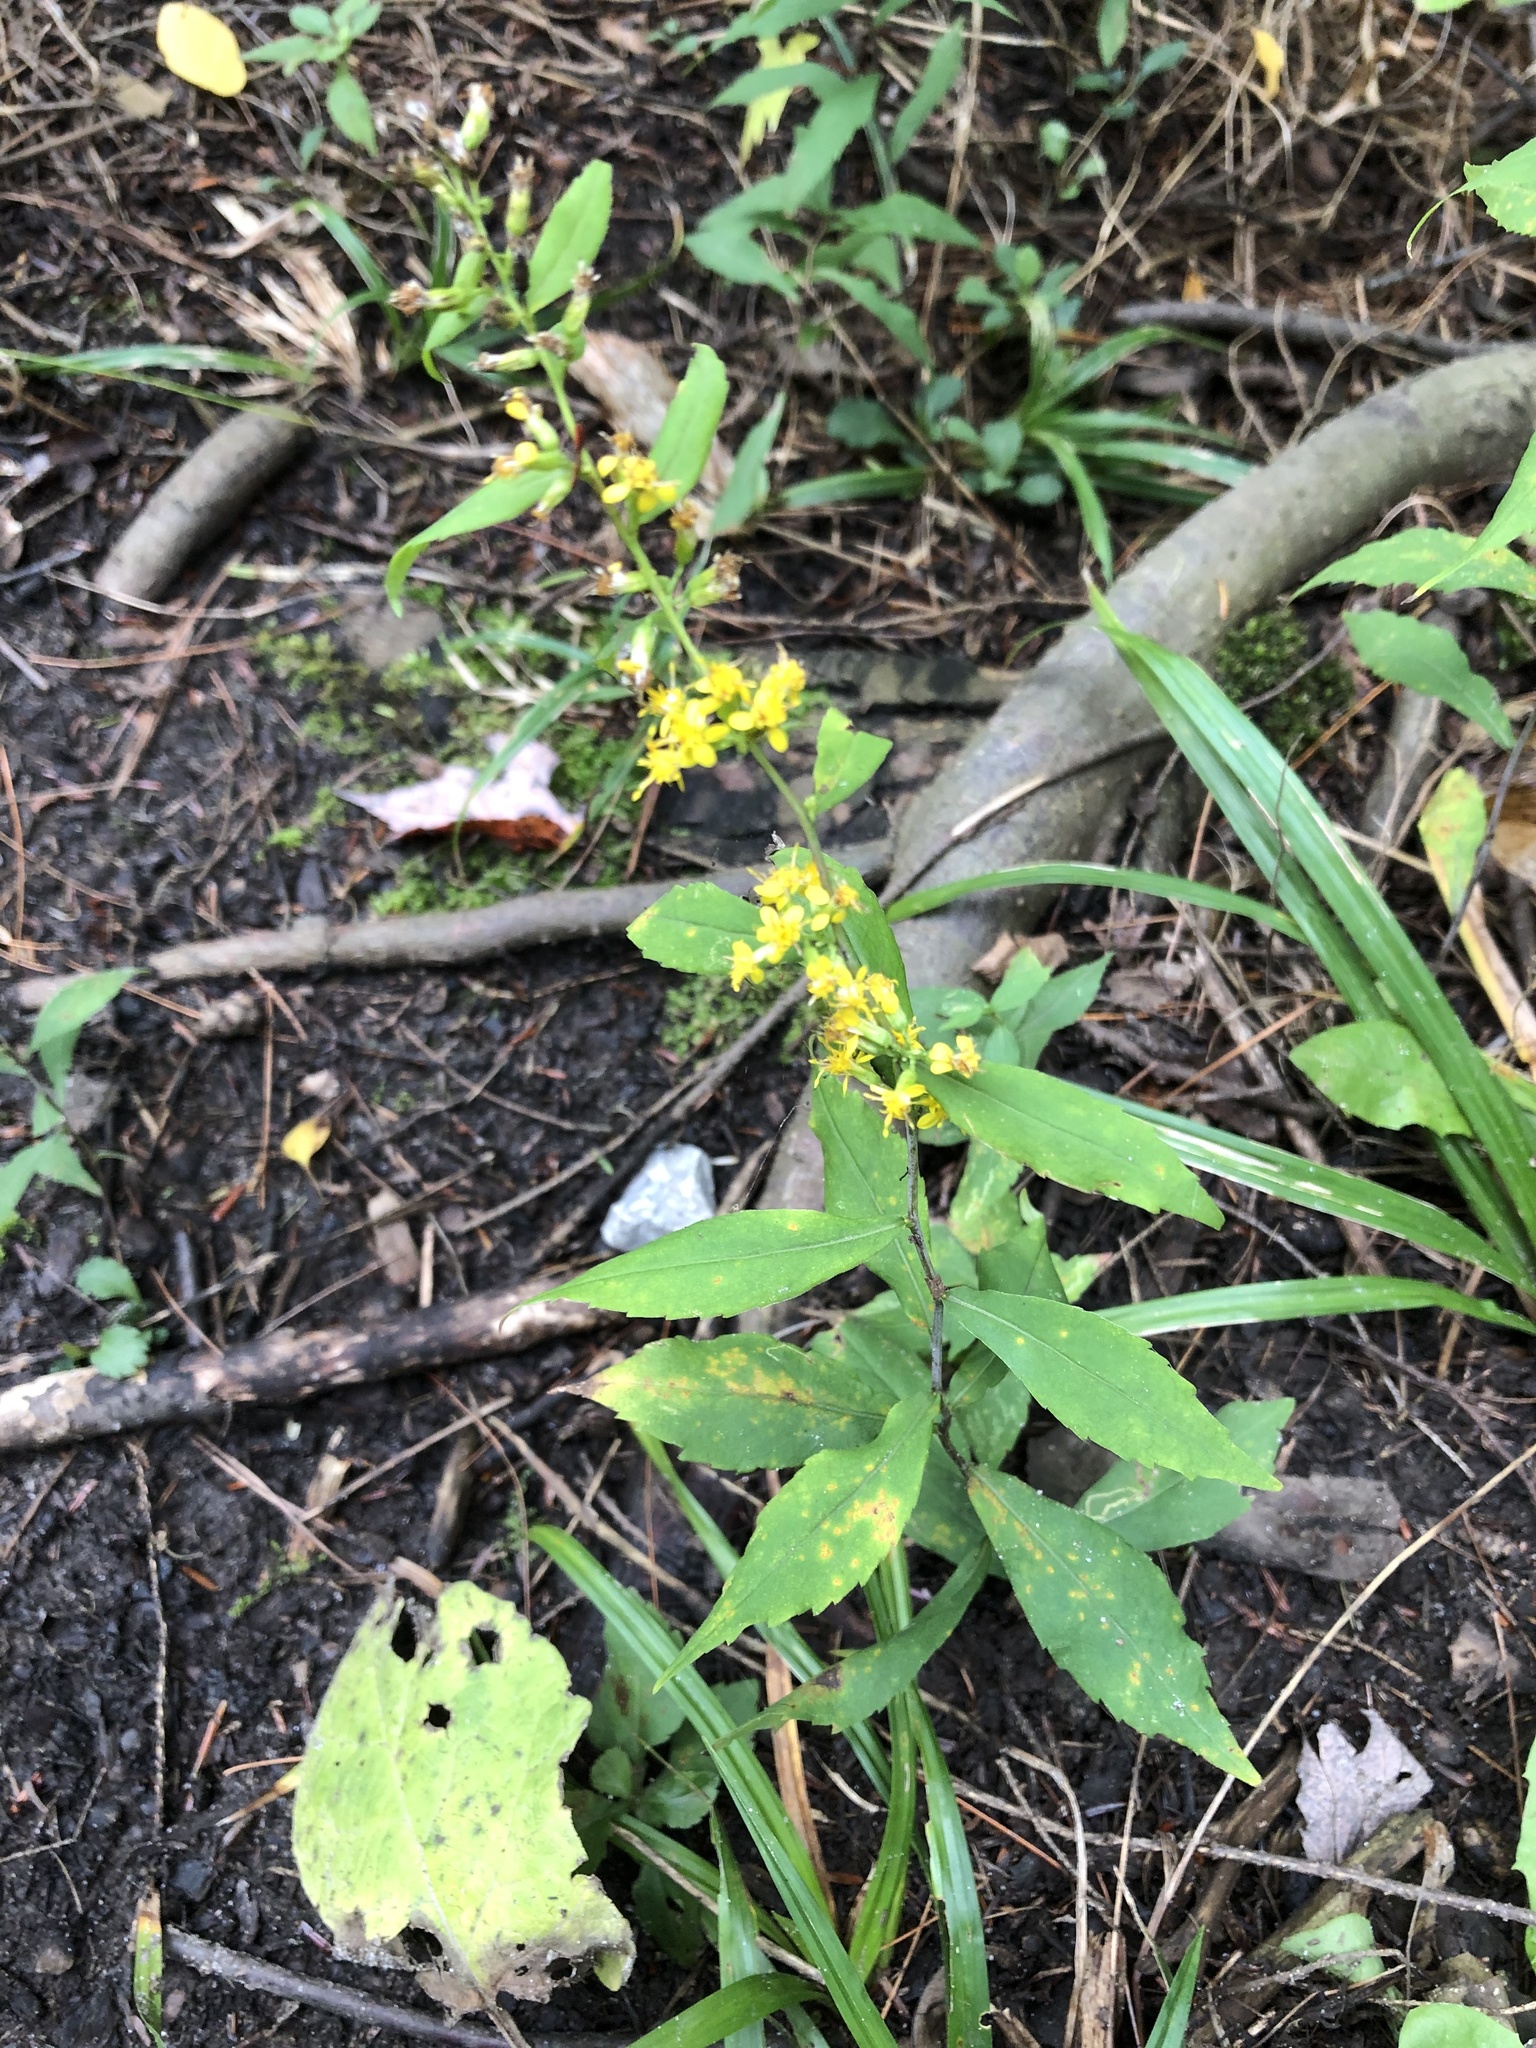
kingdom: Plantae
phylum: Tracheophyta
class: Magnoliopsida
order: Asterales
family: Asteraceae
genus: Solidago
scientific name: Solidago caesia
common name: Woodland goldenrod
